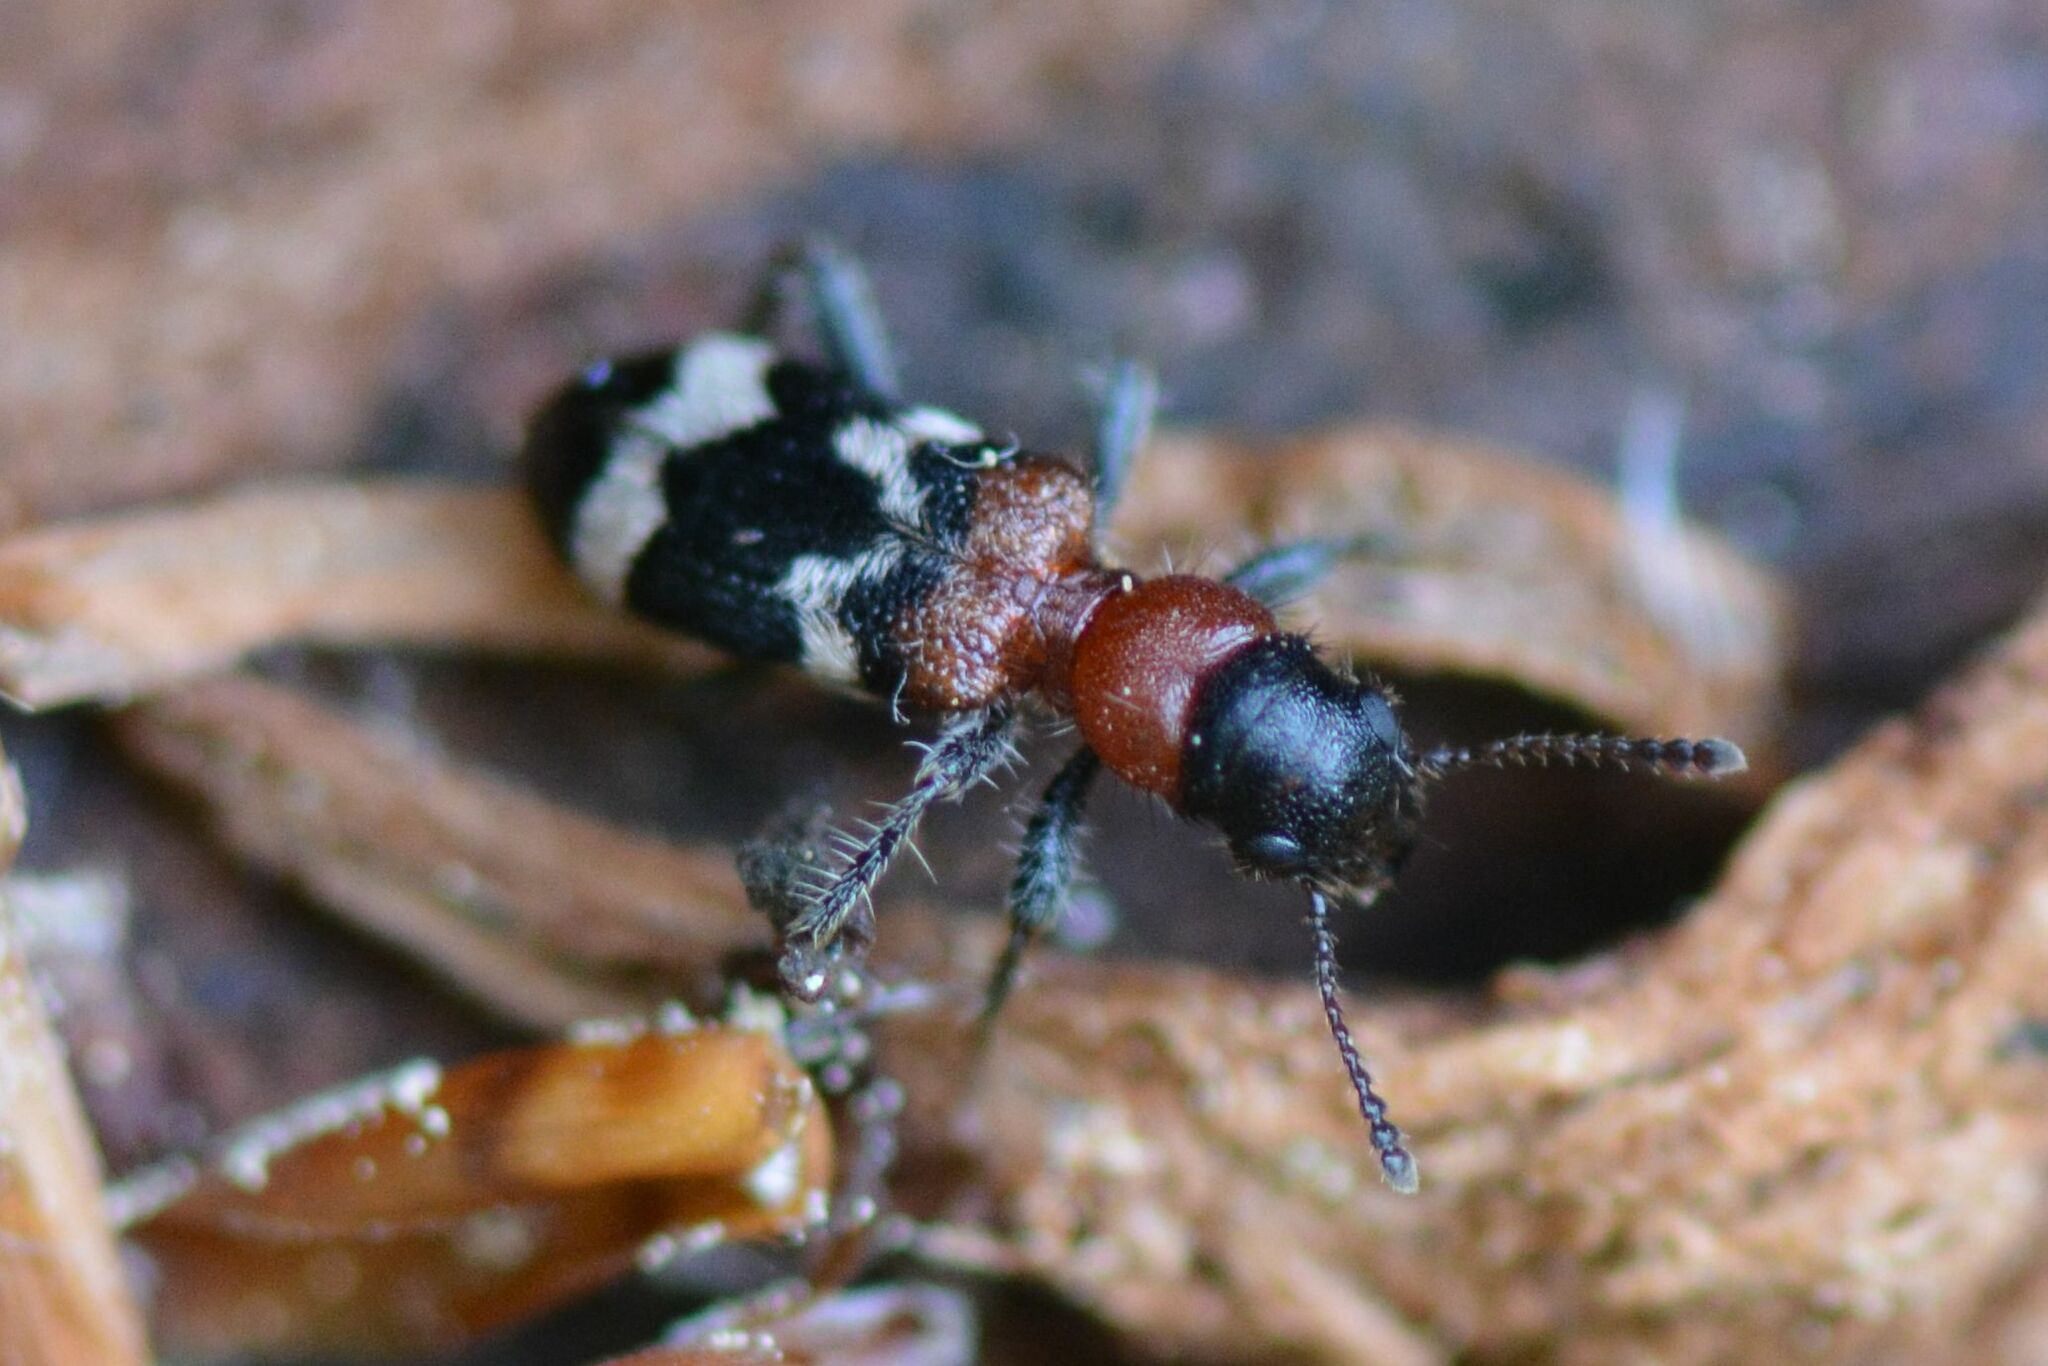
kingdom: Animalia
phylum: Arthropoda
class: Insecta
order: Coleoptera
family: Cleridae
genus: Thanasimus
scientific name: Thanasimus formicarius
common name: Ant beetle
